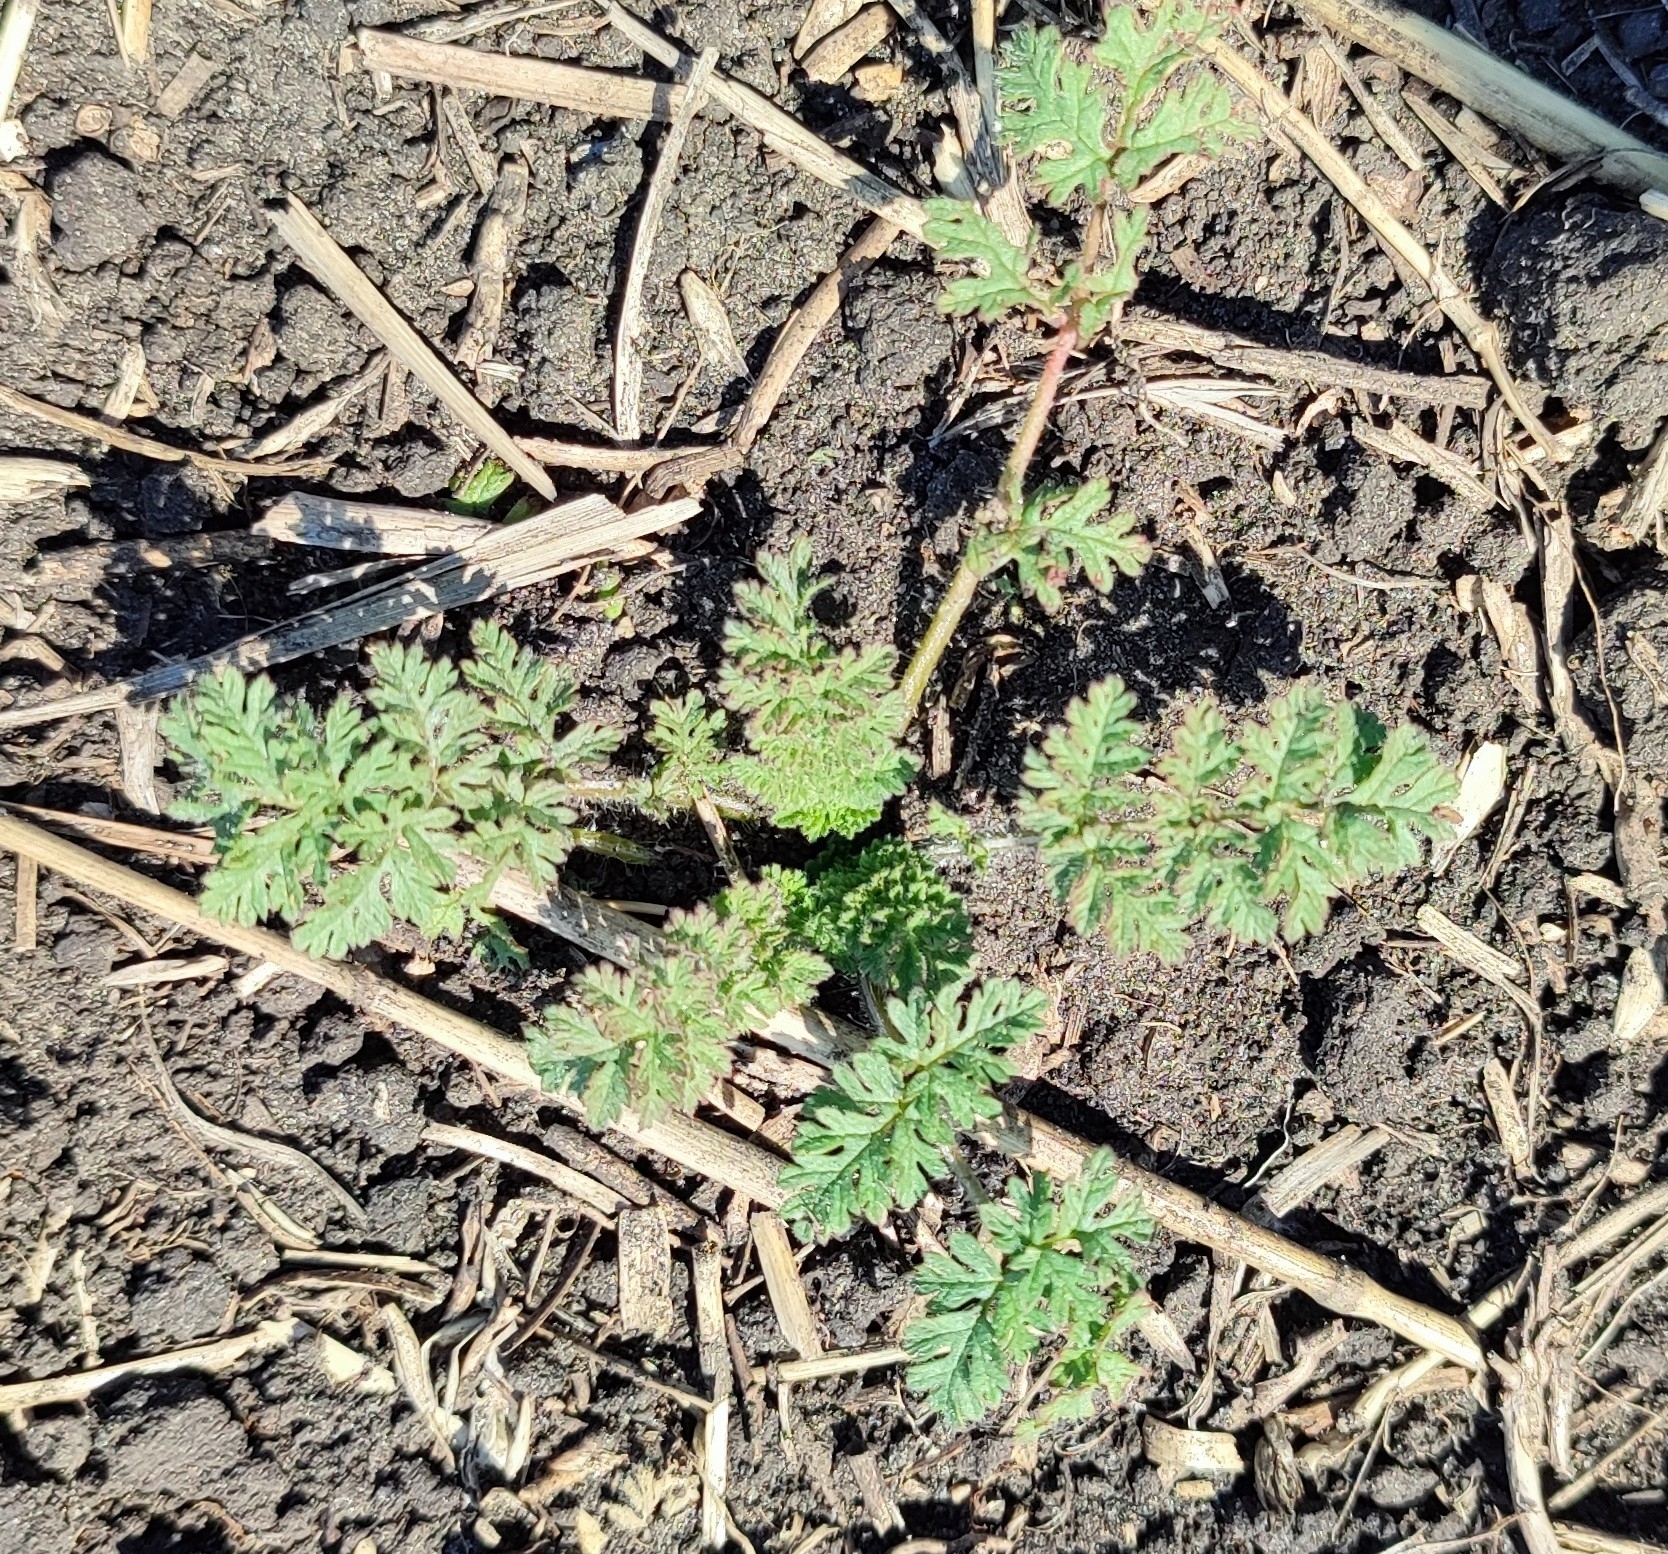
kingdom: Plantae
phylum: Tracheophyta
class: Magnoliopsida
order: Geraniales
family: Geraniaceae
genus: Erodium
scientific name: Erodium cicutarium
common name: Common stork's-bill
